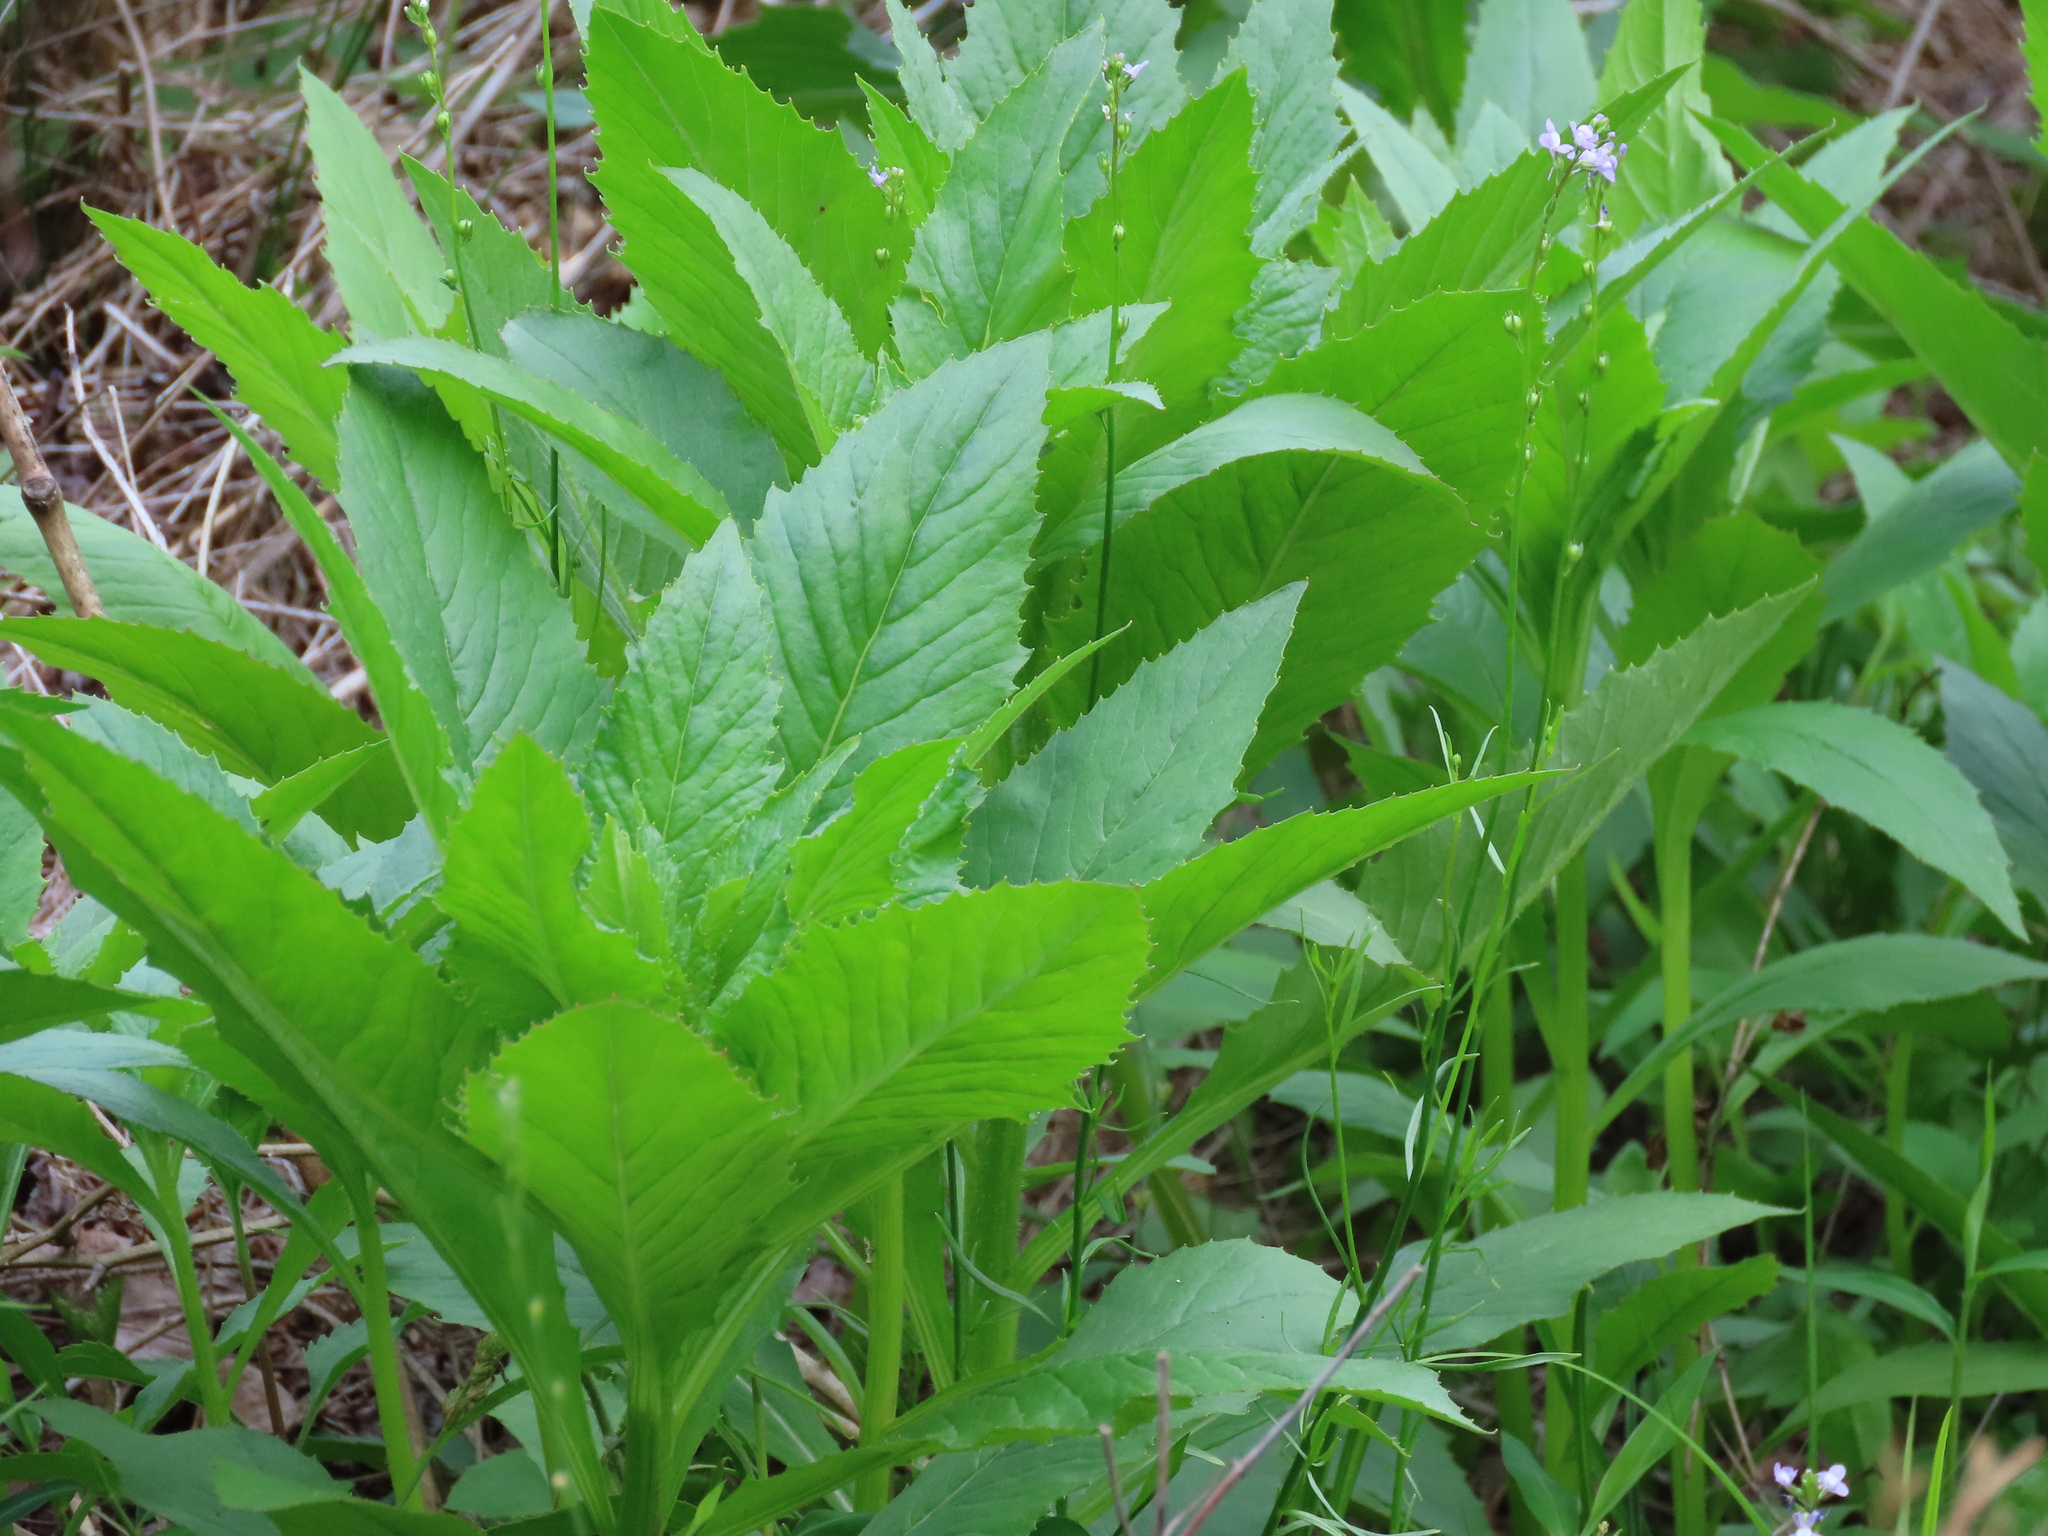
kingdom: Plantae
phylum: Tracheophyta
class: Magnoliopsida
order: Asterales
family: Asteraceae
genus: Erechtites
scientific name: Erechtites hieraciifolius
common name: American burnweed
